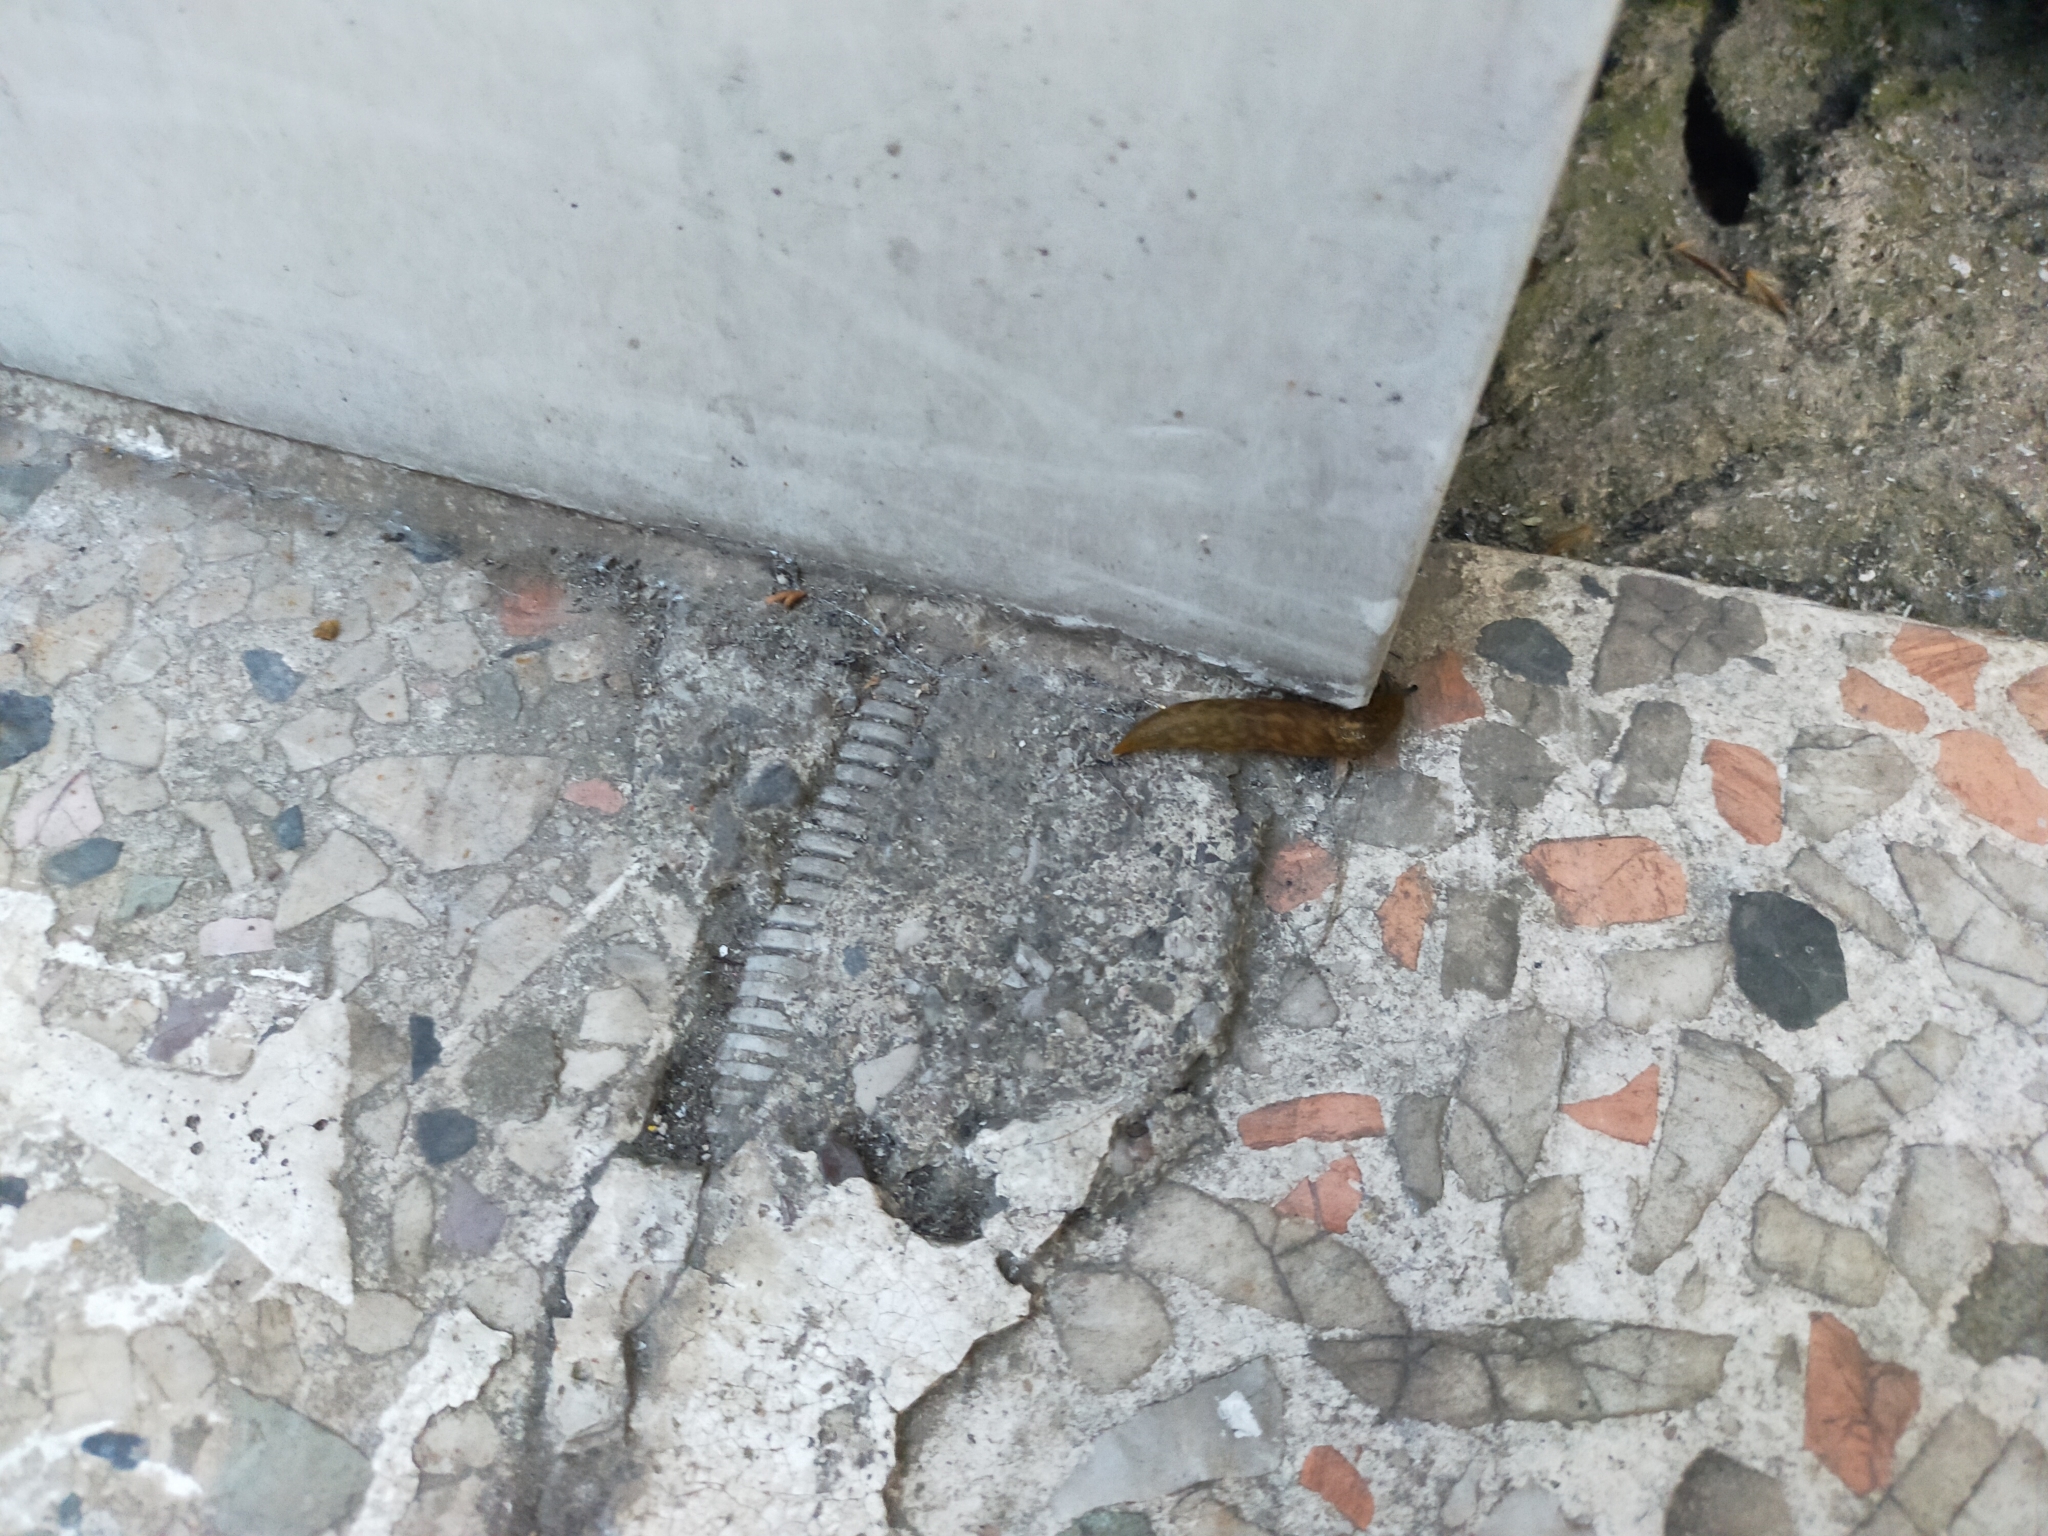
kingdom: Animalia
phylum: Mollusca
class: Gastropoda
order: Stylommatophora
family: Limacidae
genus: Limacus
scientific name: Limacus
